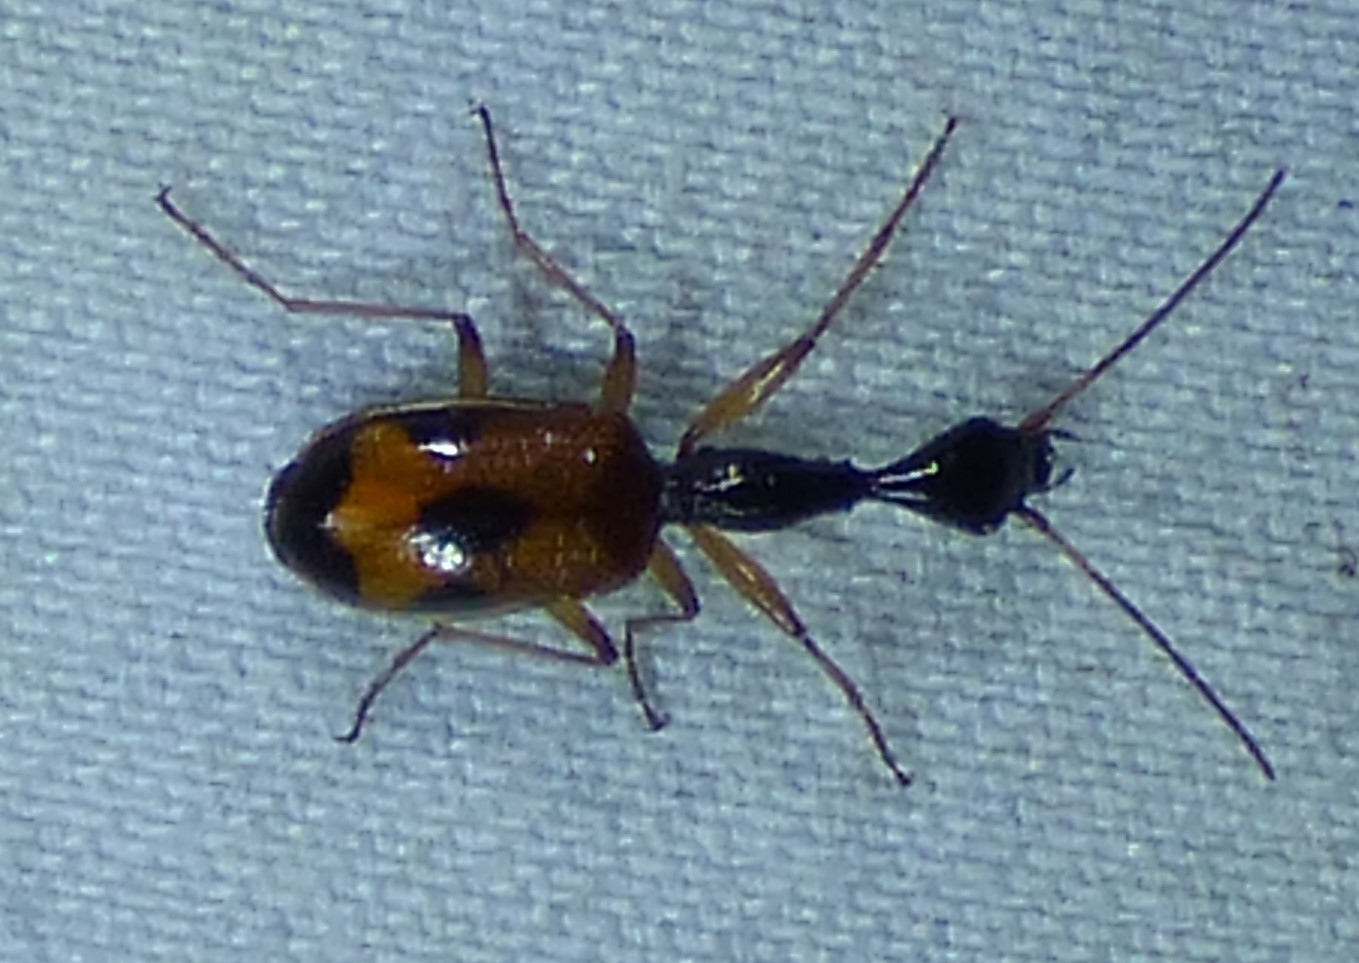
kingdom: Animalia
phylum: Arthropoda
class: Insecta
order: Coleoptera
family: Carabidae
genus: Colliuris
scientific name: Colliuris pensylvanica
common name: Long-necked ground beetle
